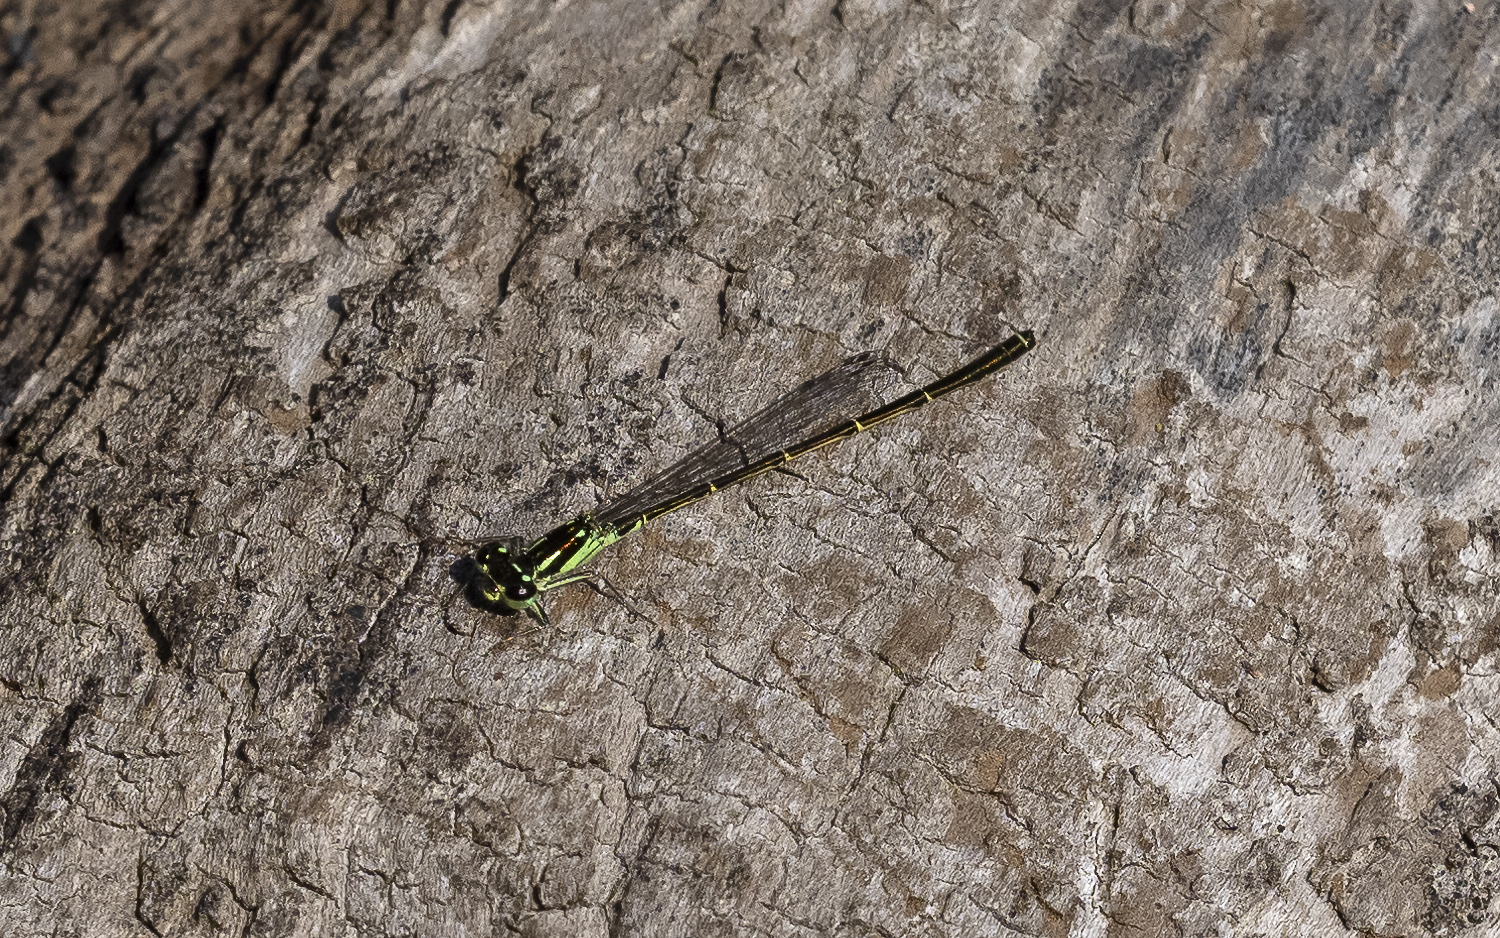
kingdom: Animalia
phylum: Arthropoda
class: Insecta
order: Odonata
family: Coenagrionidae
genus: Ischnura
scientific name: Ischnura posita
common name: Fragile forktail
